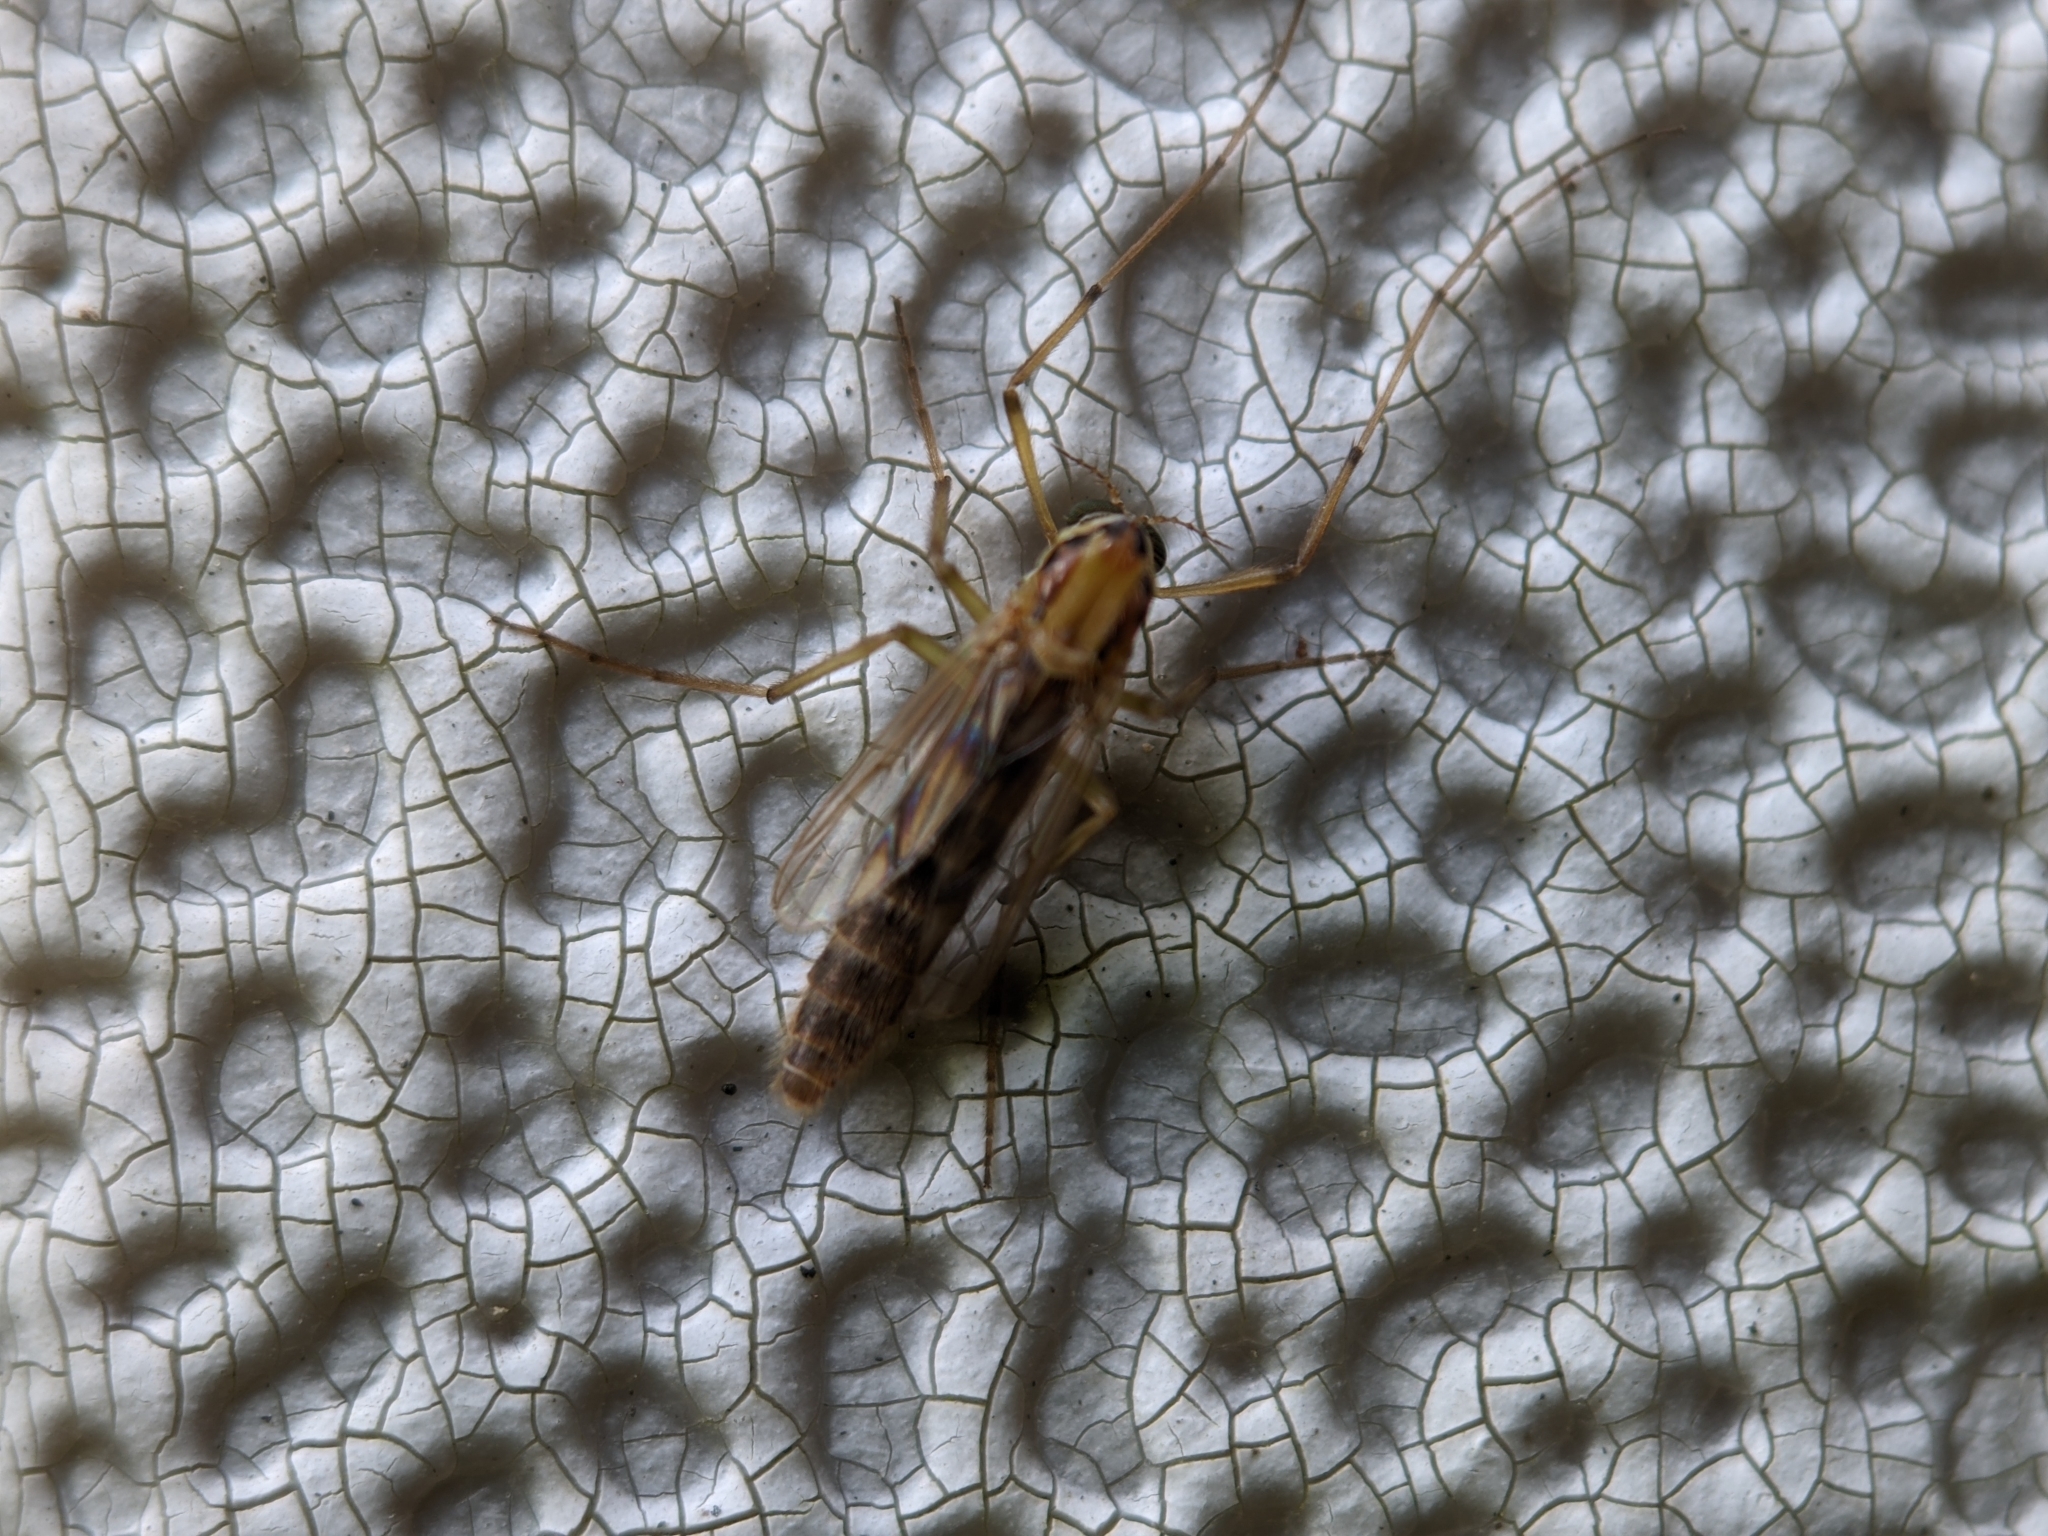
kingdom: Animalia
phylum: Arthropoda
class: Insecta
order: Diptera
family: Chironomidae
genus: Goeldichironomus
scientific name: Goeldichironomus carus
